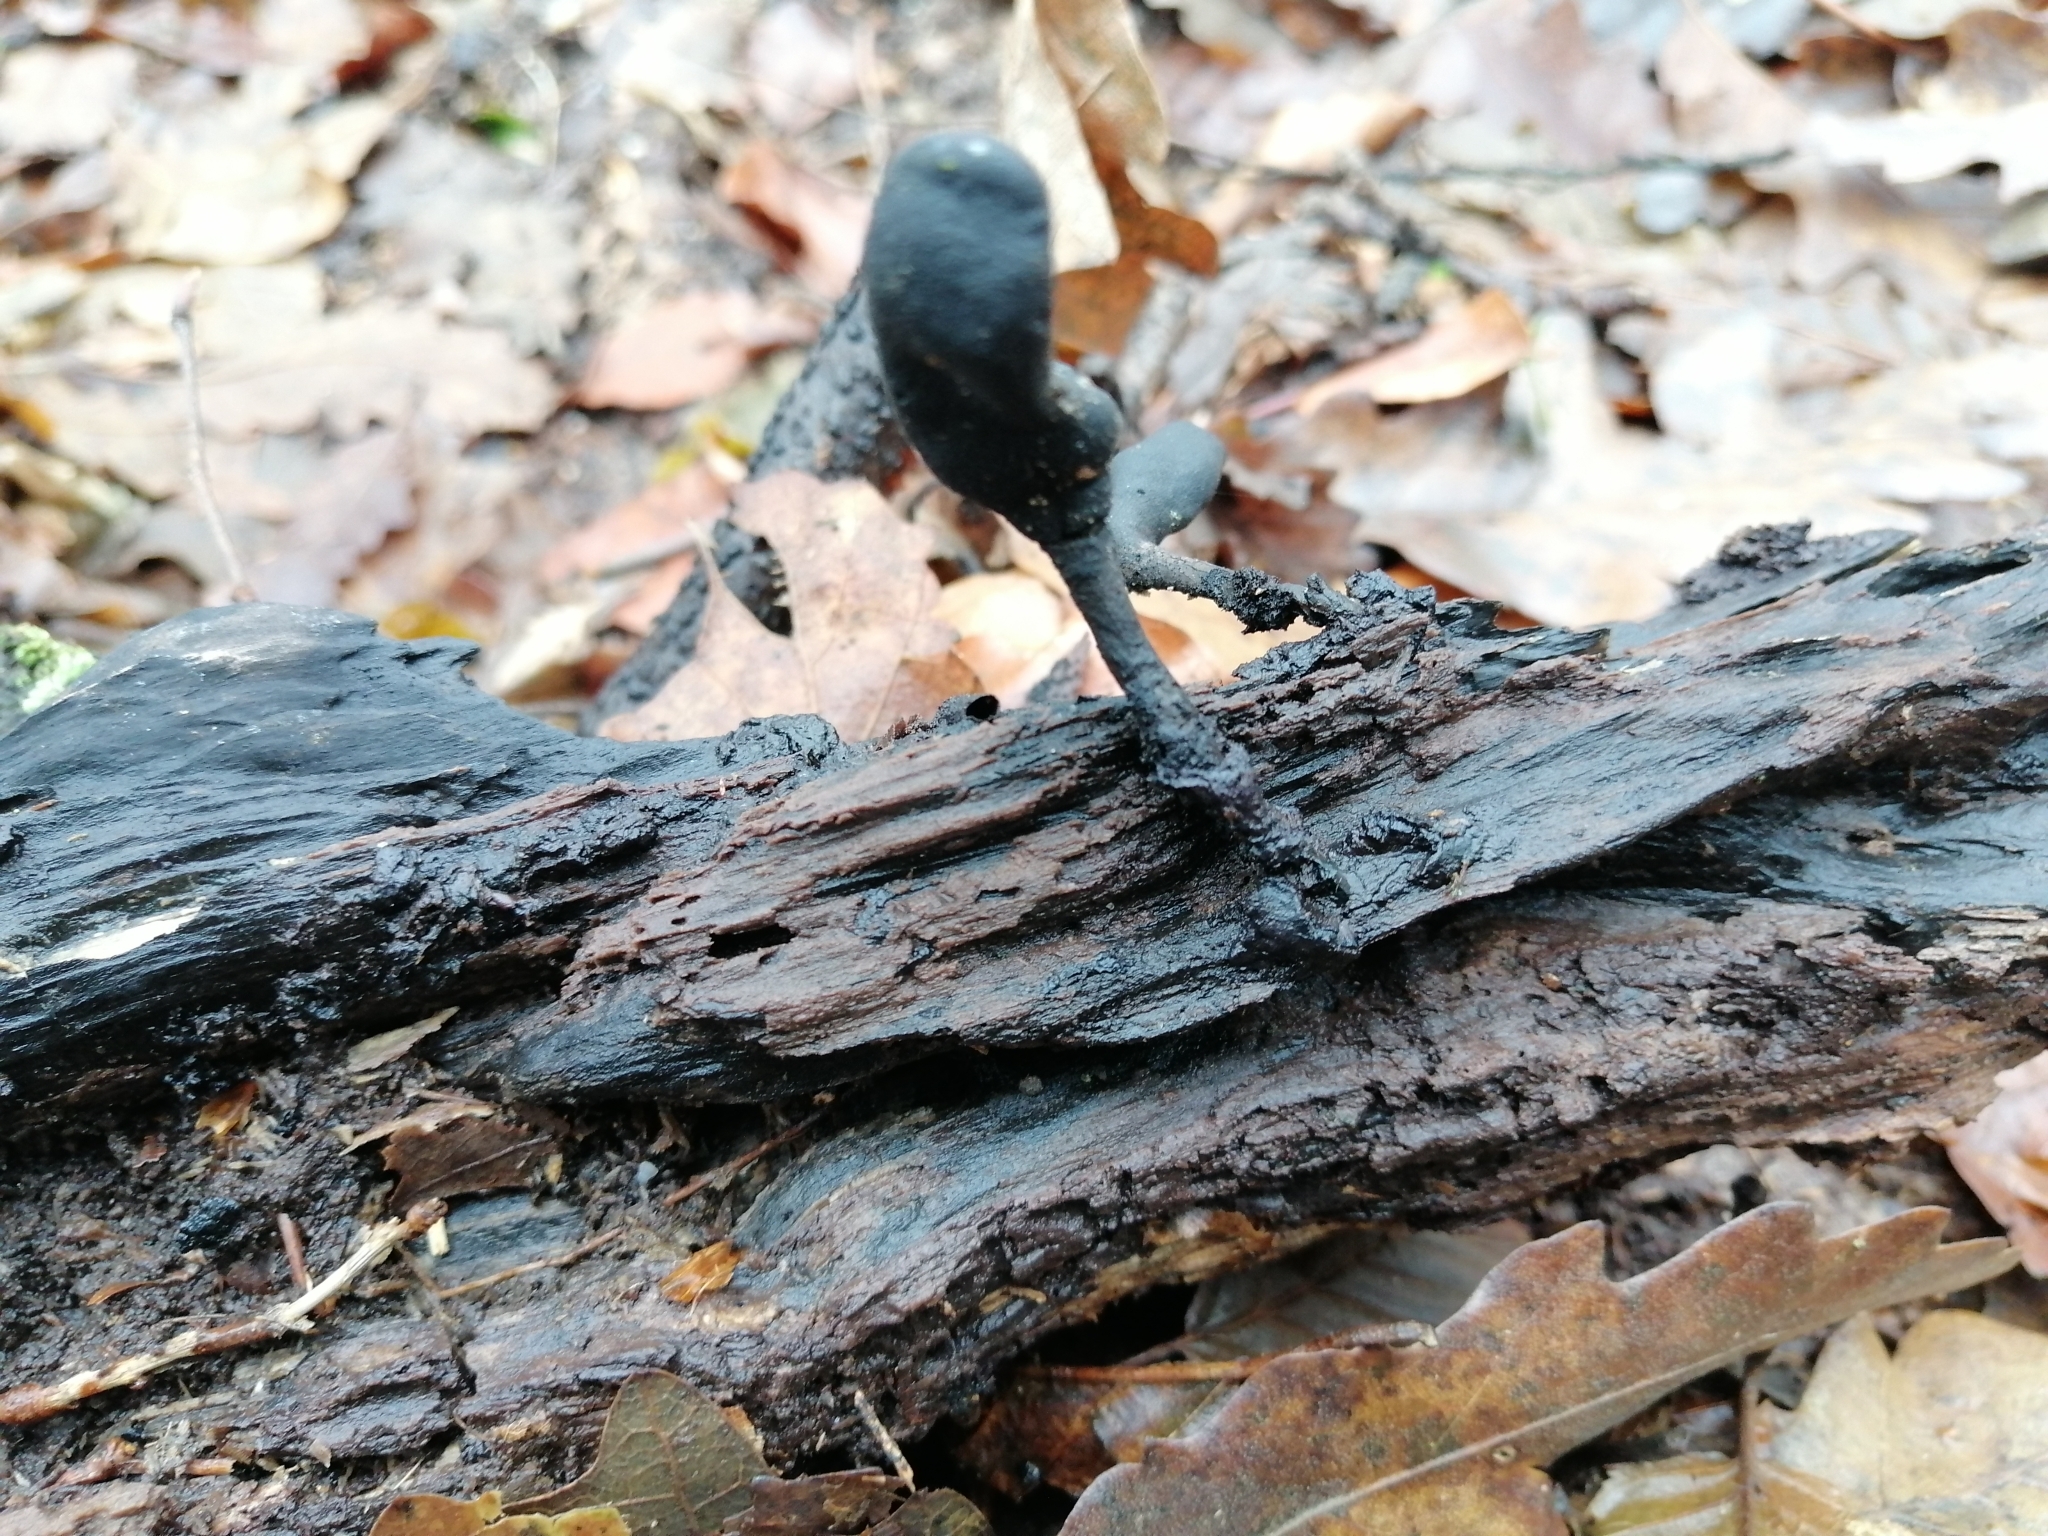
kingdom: Fungi
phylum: Ascomycota
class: Sordariomycetes
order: Xylariales
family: Xylariaceae
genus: Xylaria
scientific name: Xylaria longipes
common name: Dead moll's fingers
